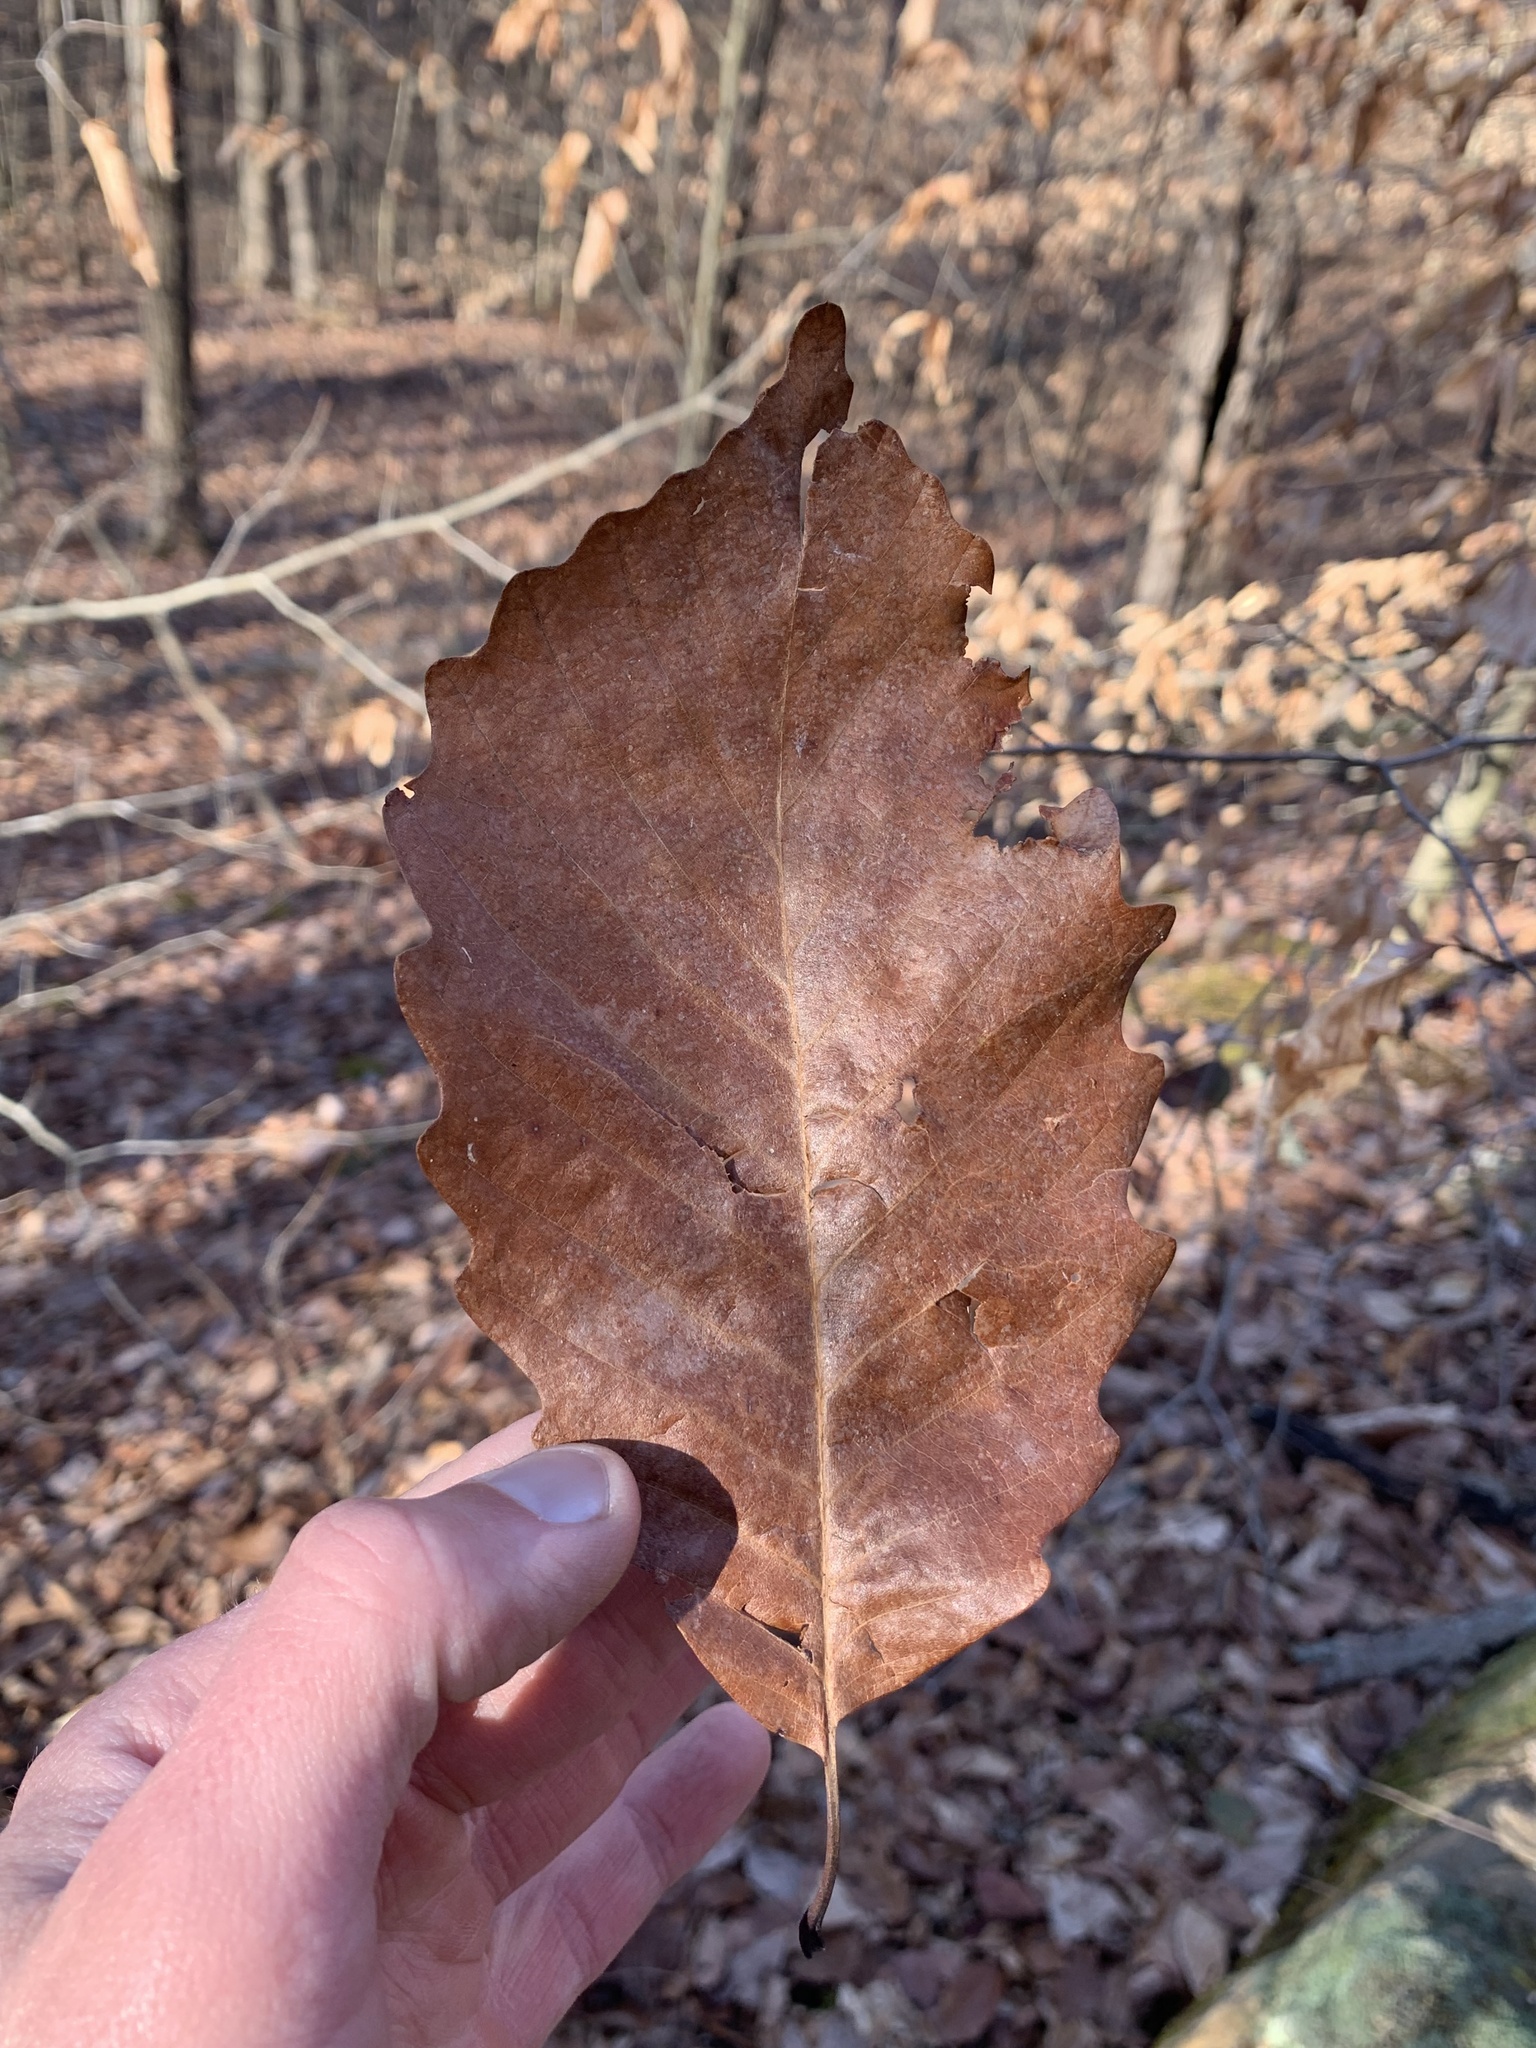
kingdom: Plantae
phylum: Tracheophyta
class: Magnoliopsida
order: Fagales
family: Fagaceae
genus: Quercus
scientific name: Quercus montana
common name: Chestnut oak
